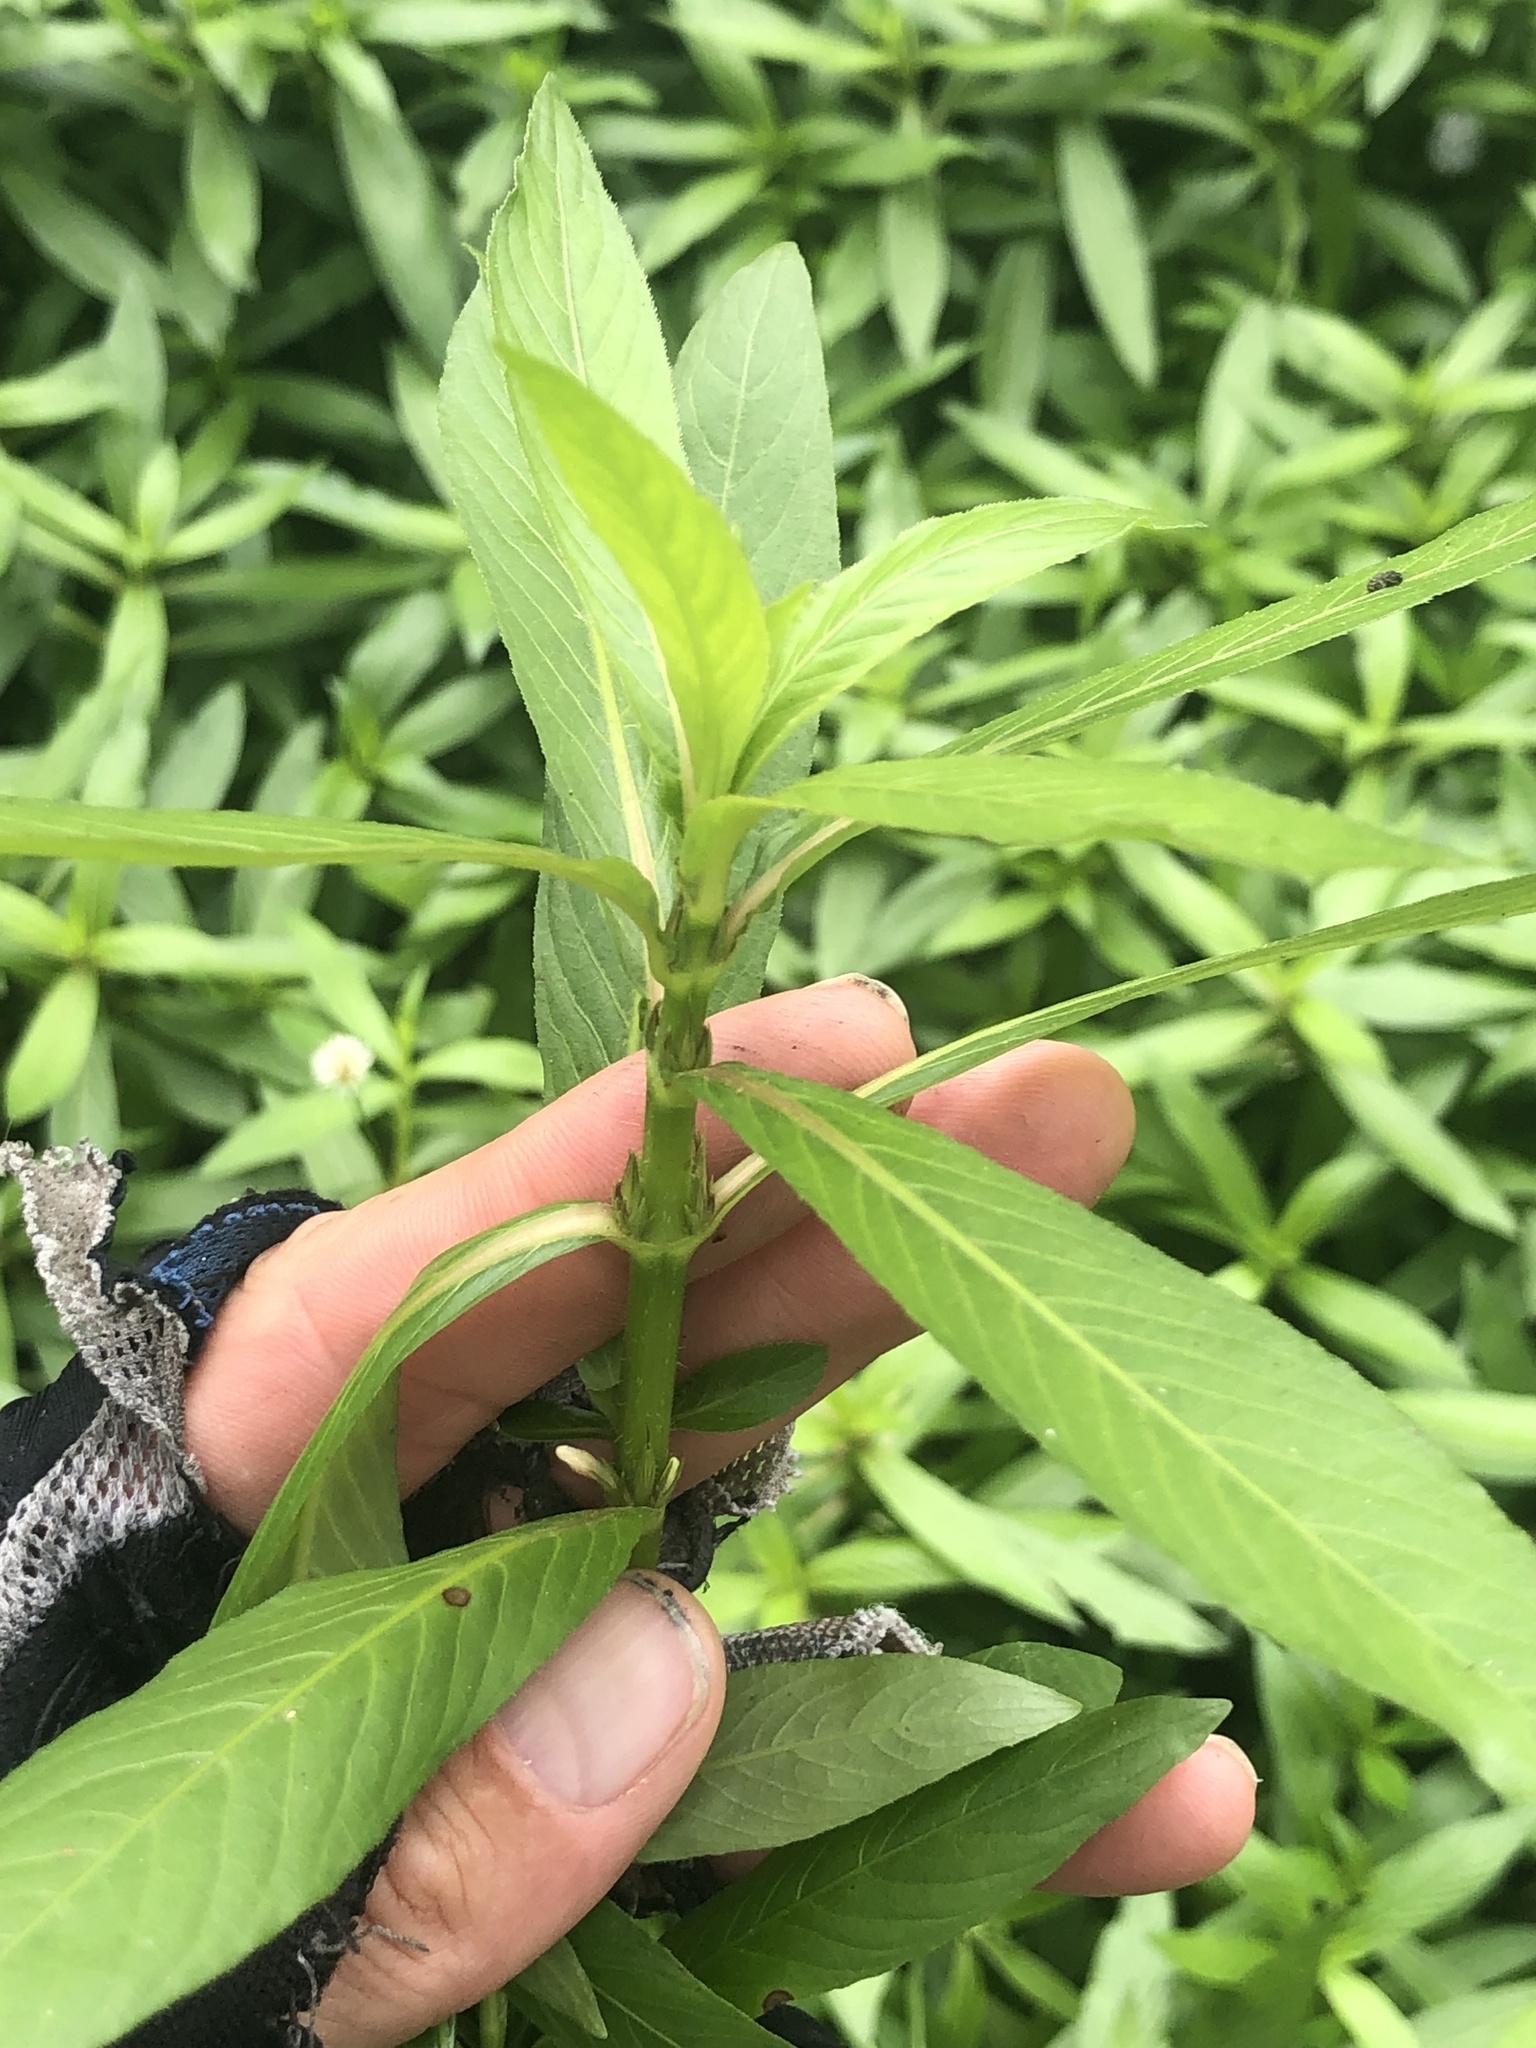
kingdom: Plantae
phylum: Tracheophyta
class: Magnoliopsida
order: Lamiales
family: Acanthaceae
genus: Hygrophila
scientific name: Hygrophila costata
